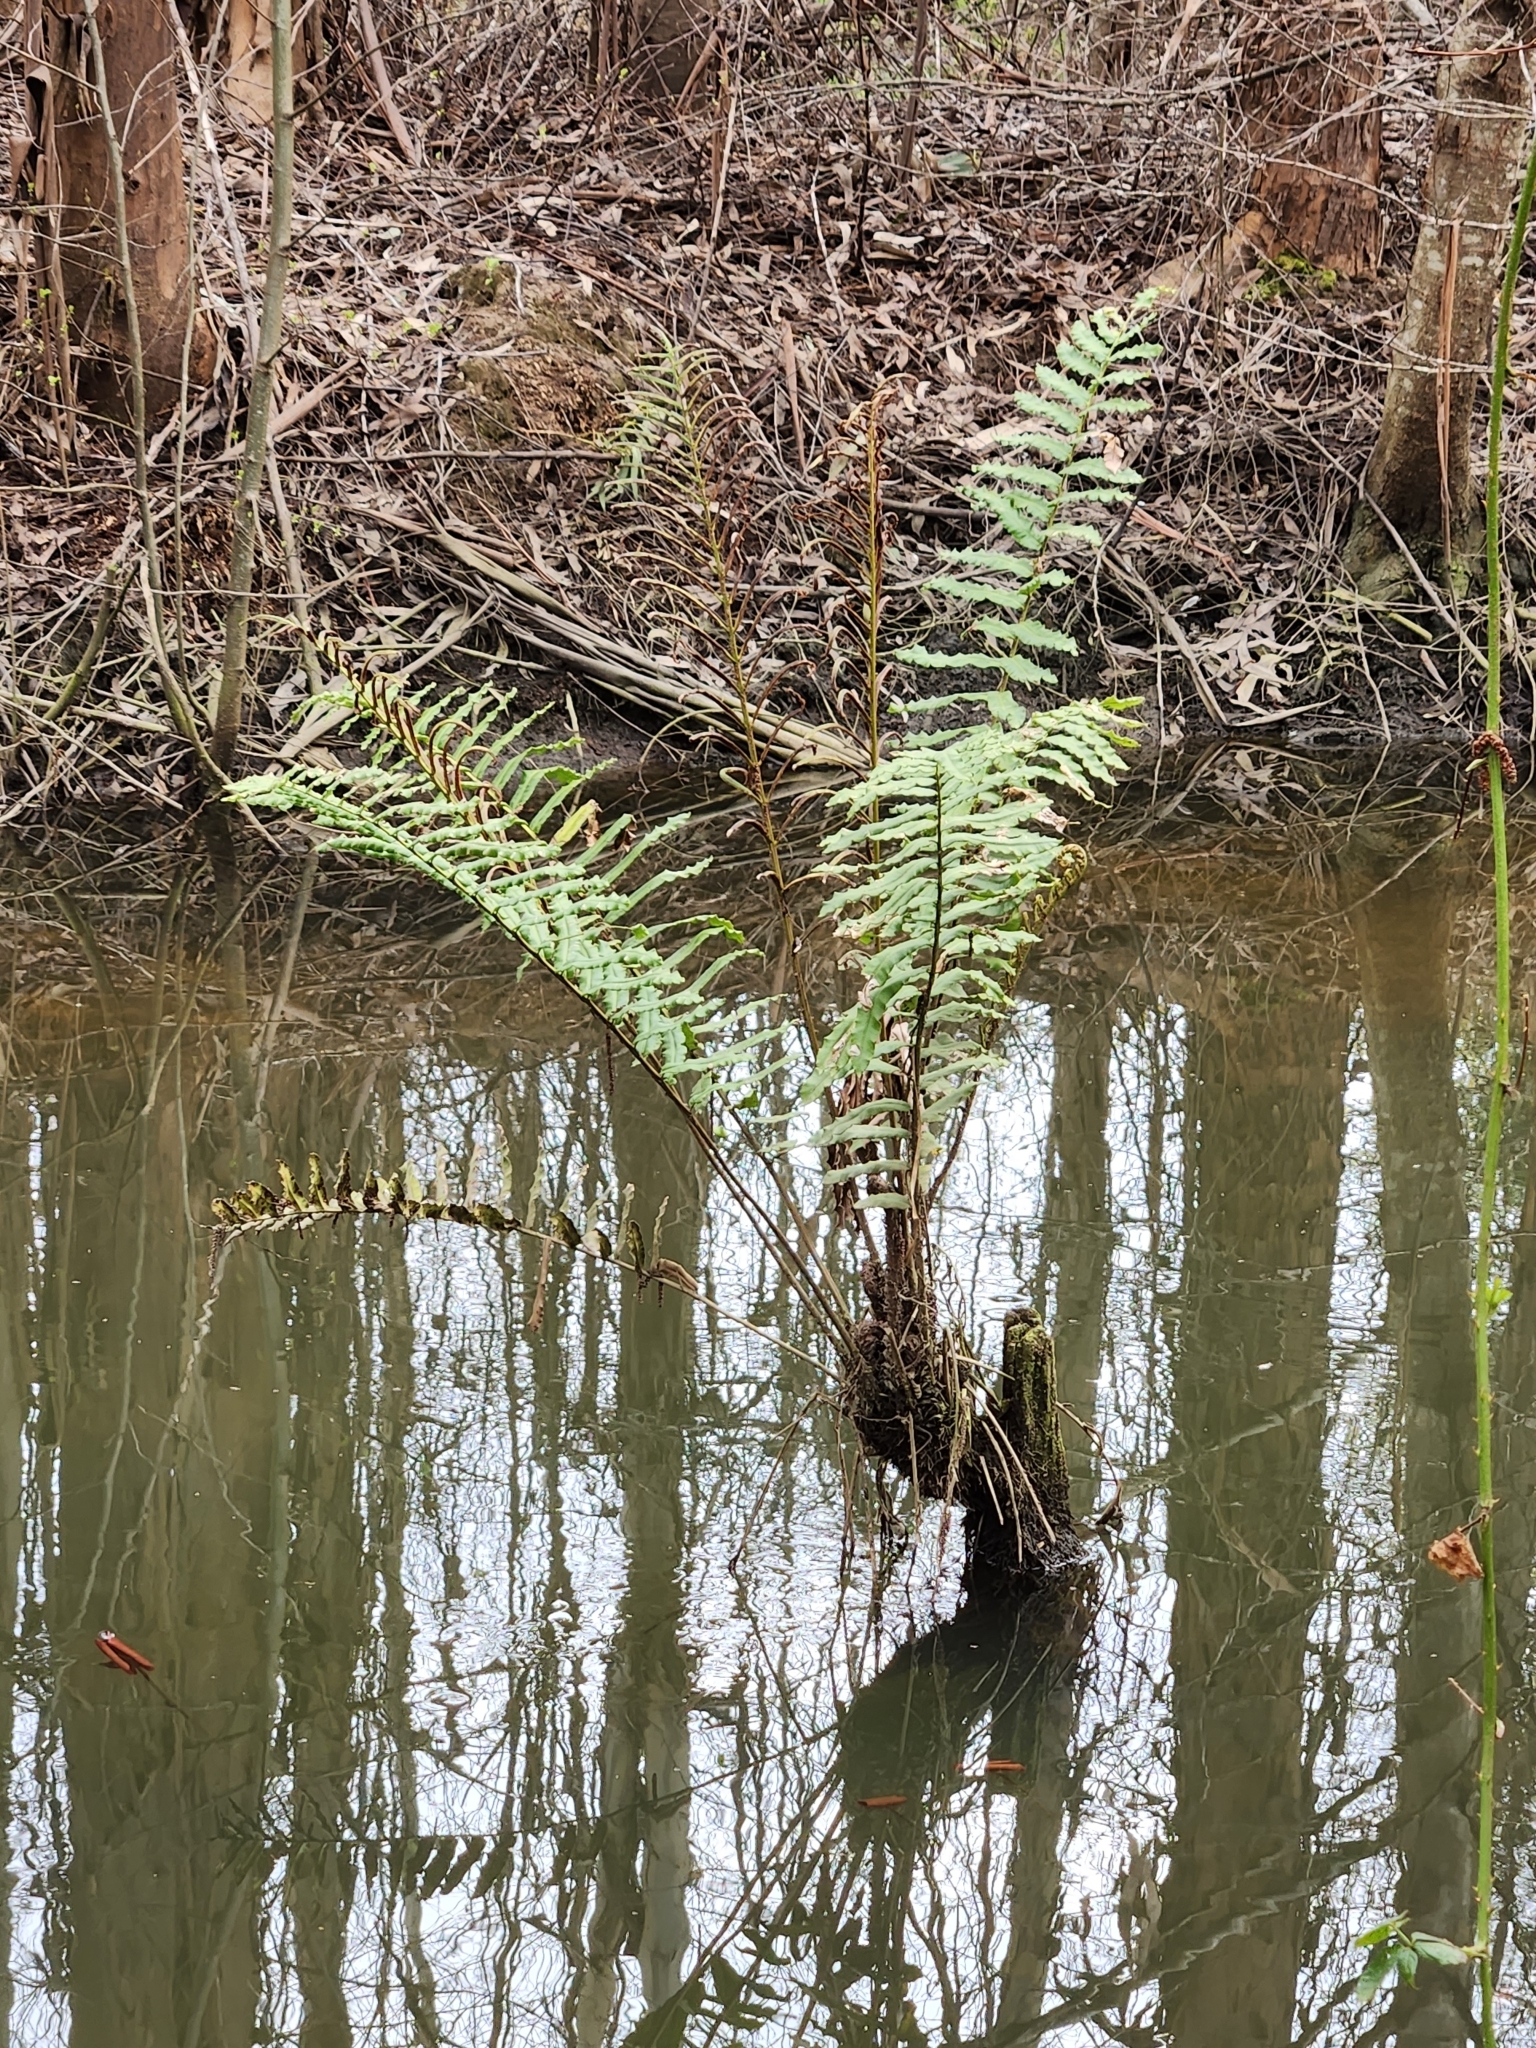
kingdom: Plantae
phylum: Tracheophyta
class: Polypodiopsida
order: Polypodiales
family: Blechnaceae
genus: Parablechnum
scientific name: Parablechnum chilense
